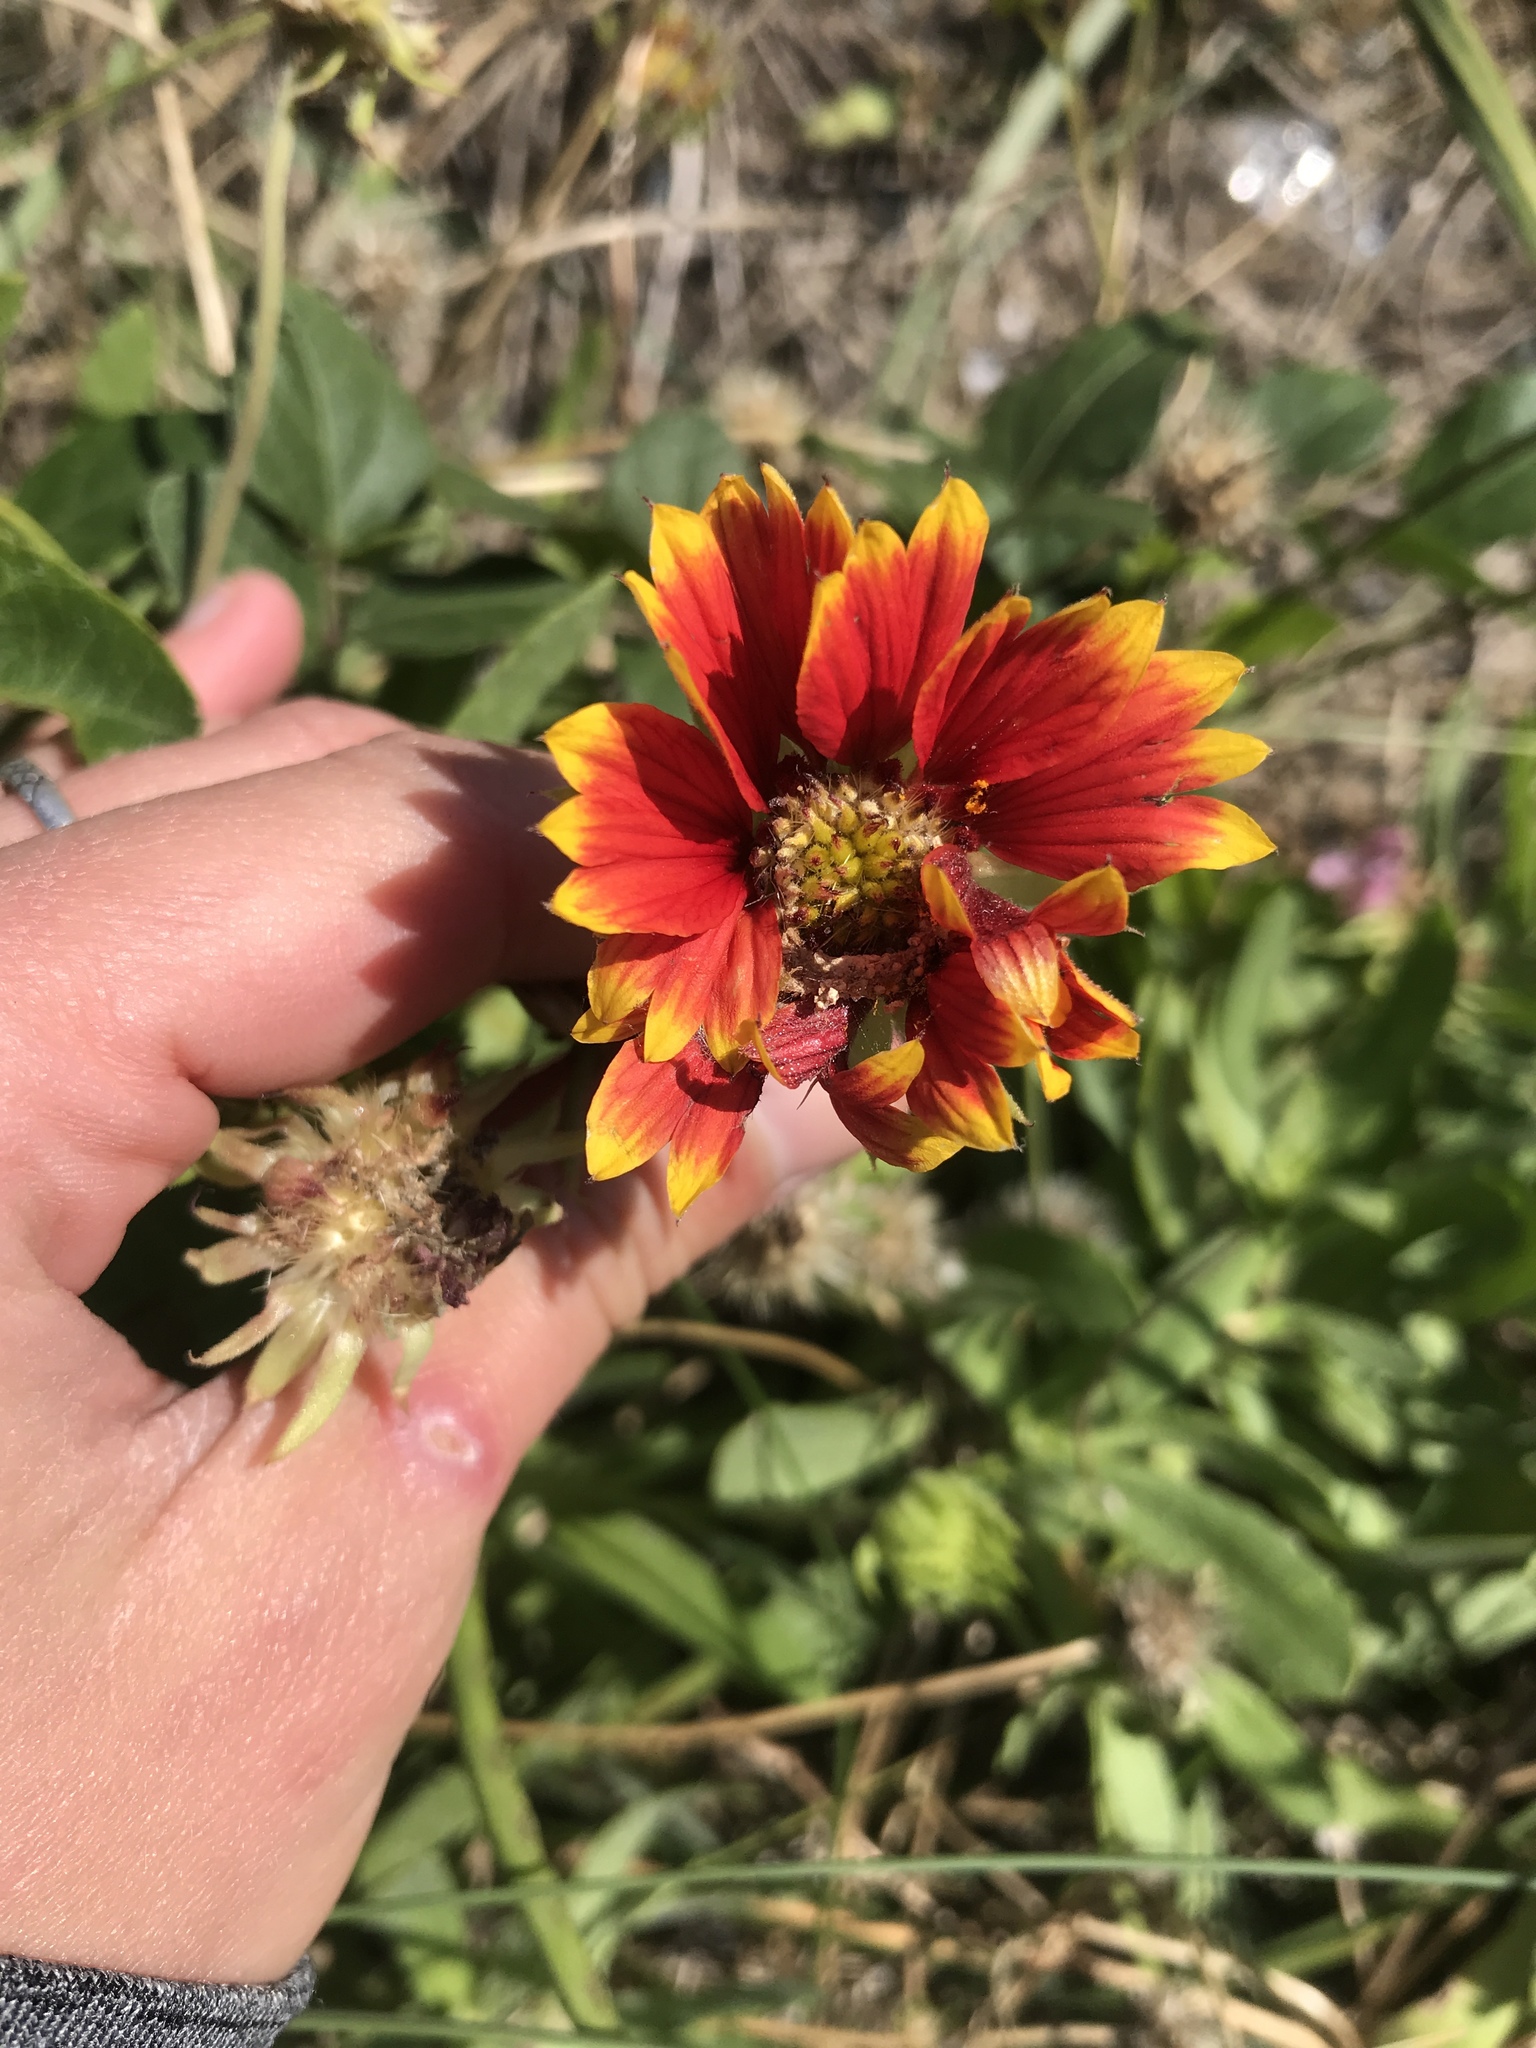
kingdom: Plantae
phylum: Tracheophyta
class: Magnoliopsida
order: Asterales
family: Asteraceae
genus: Gaillardia
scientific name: Gaillardia pulchella
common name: Firewheel
